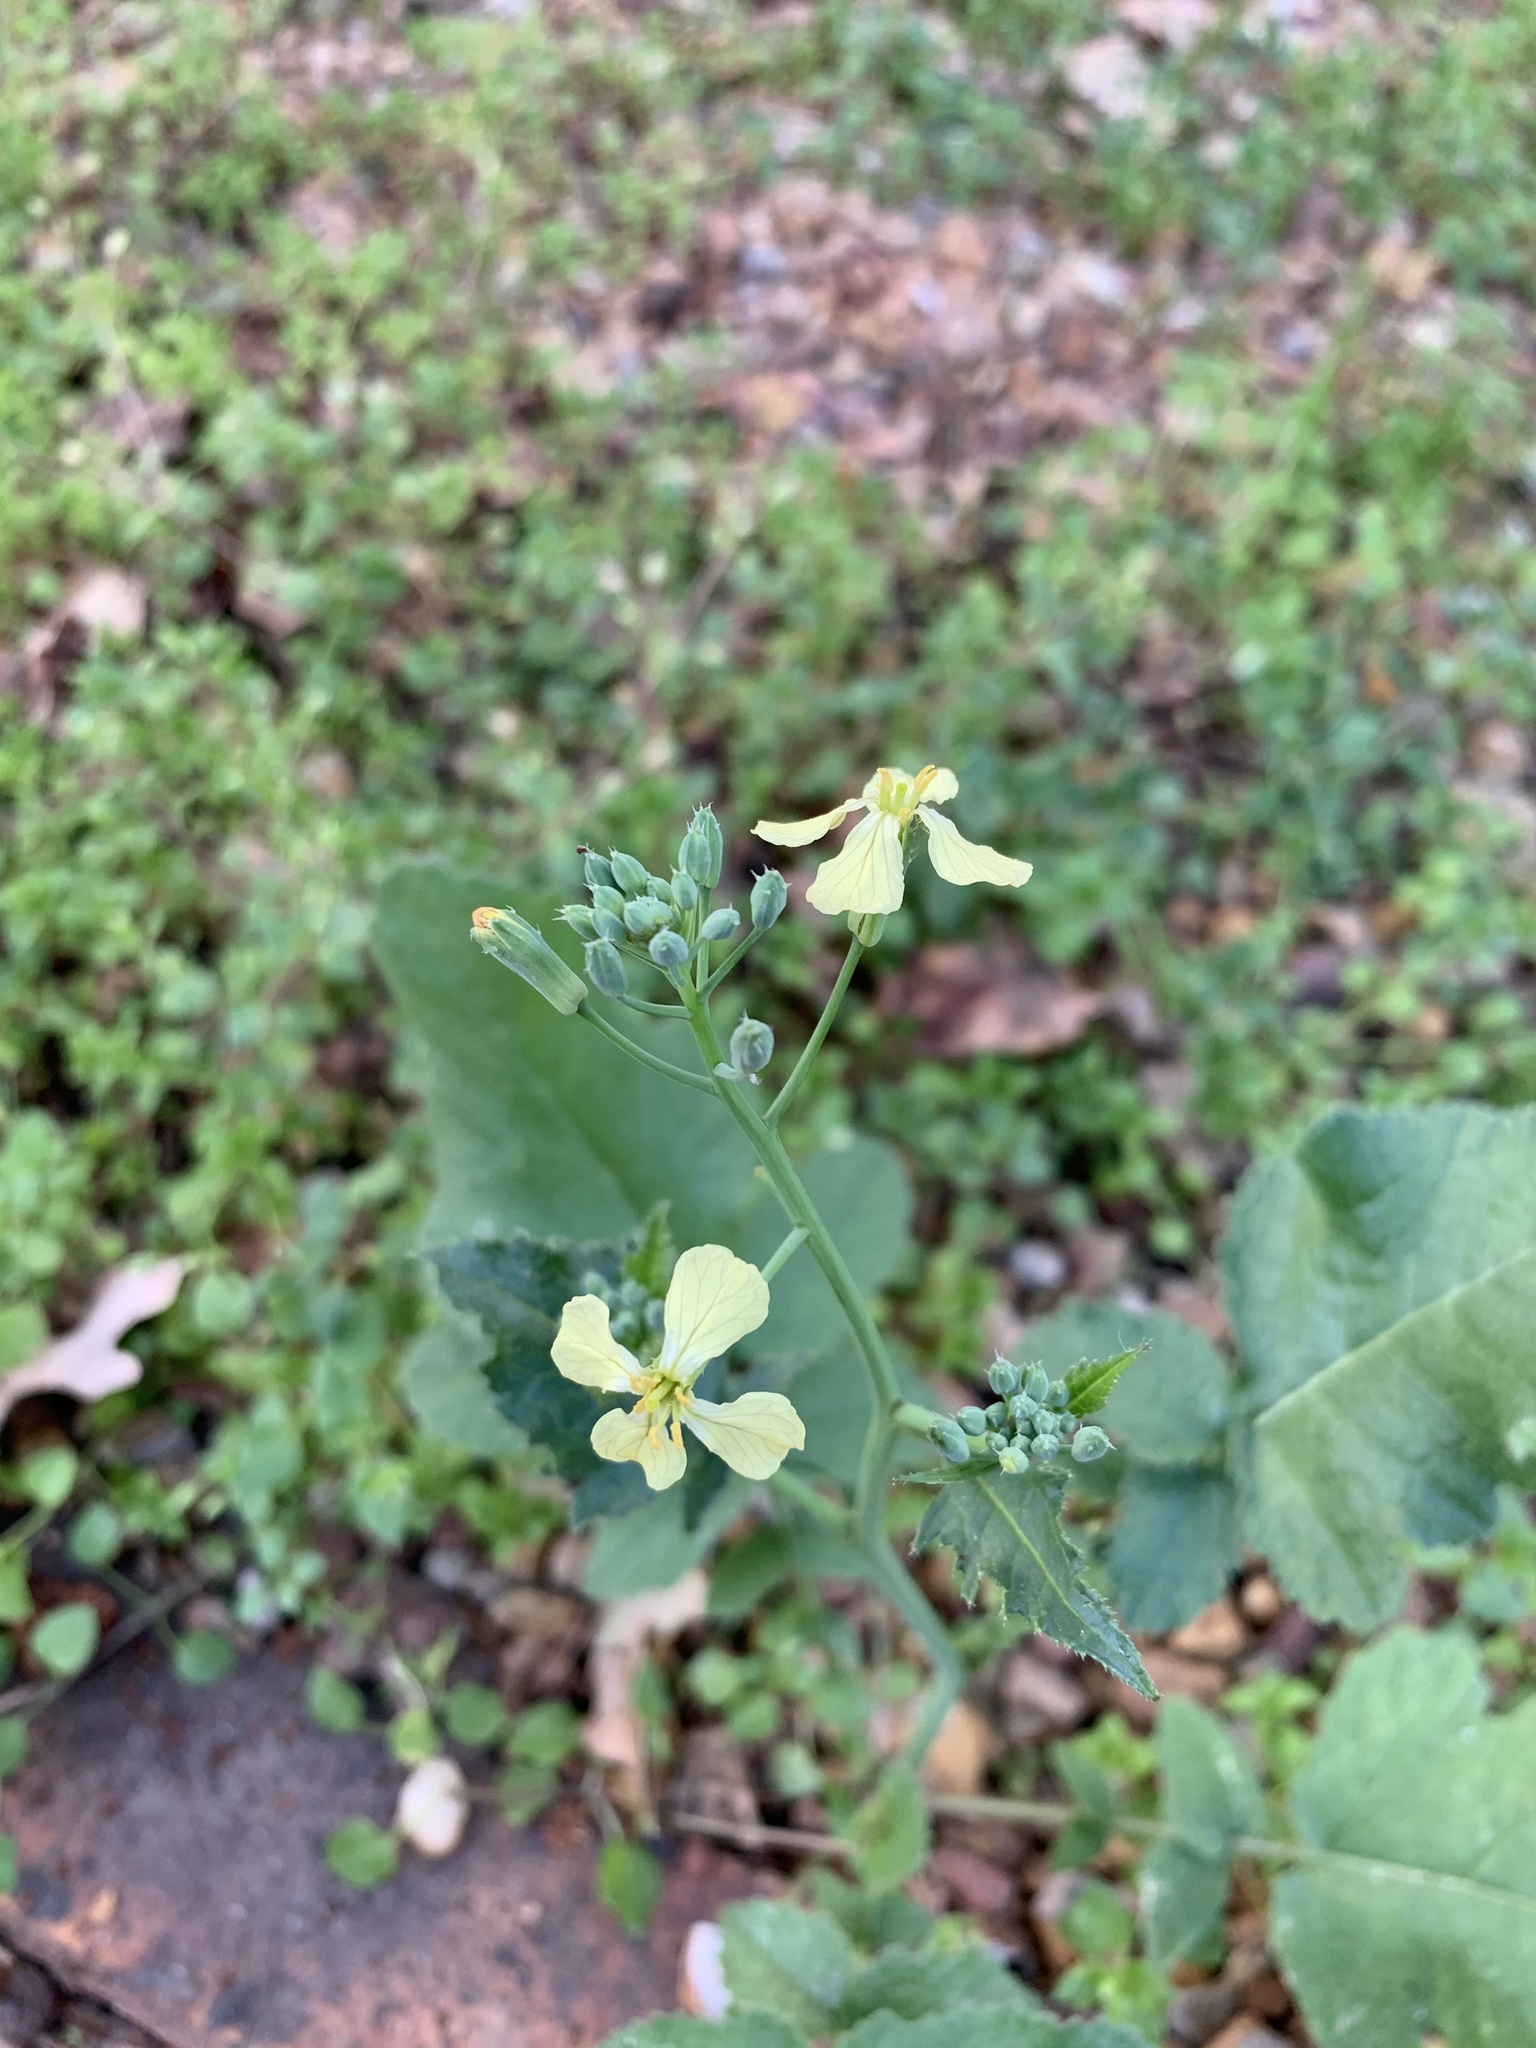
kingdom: Plantae
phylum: Tracheophyta
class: Magnoliopsida
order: Brassicales
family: Brassicaceae
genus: Raphanus
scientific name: Raphanus raphanistrum
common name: Wild radish
